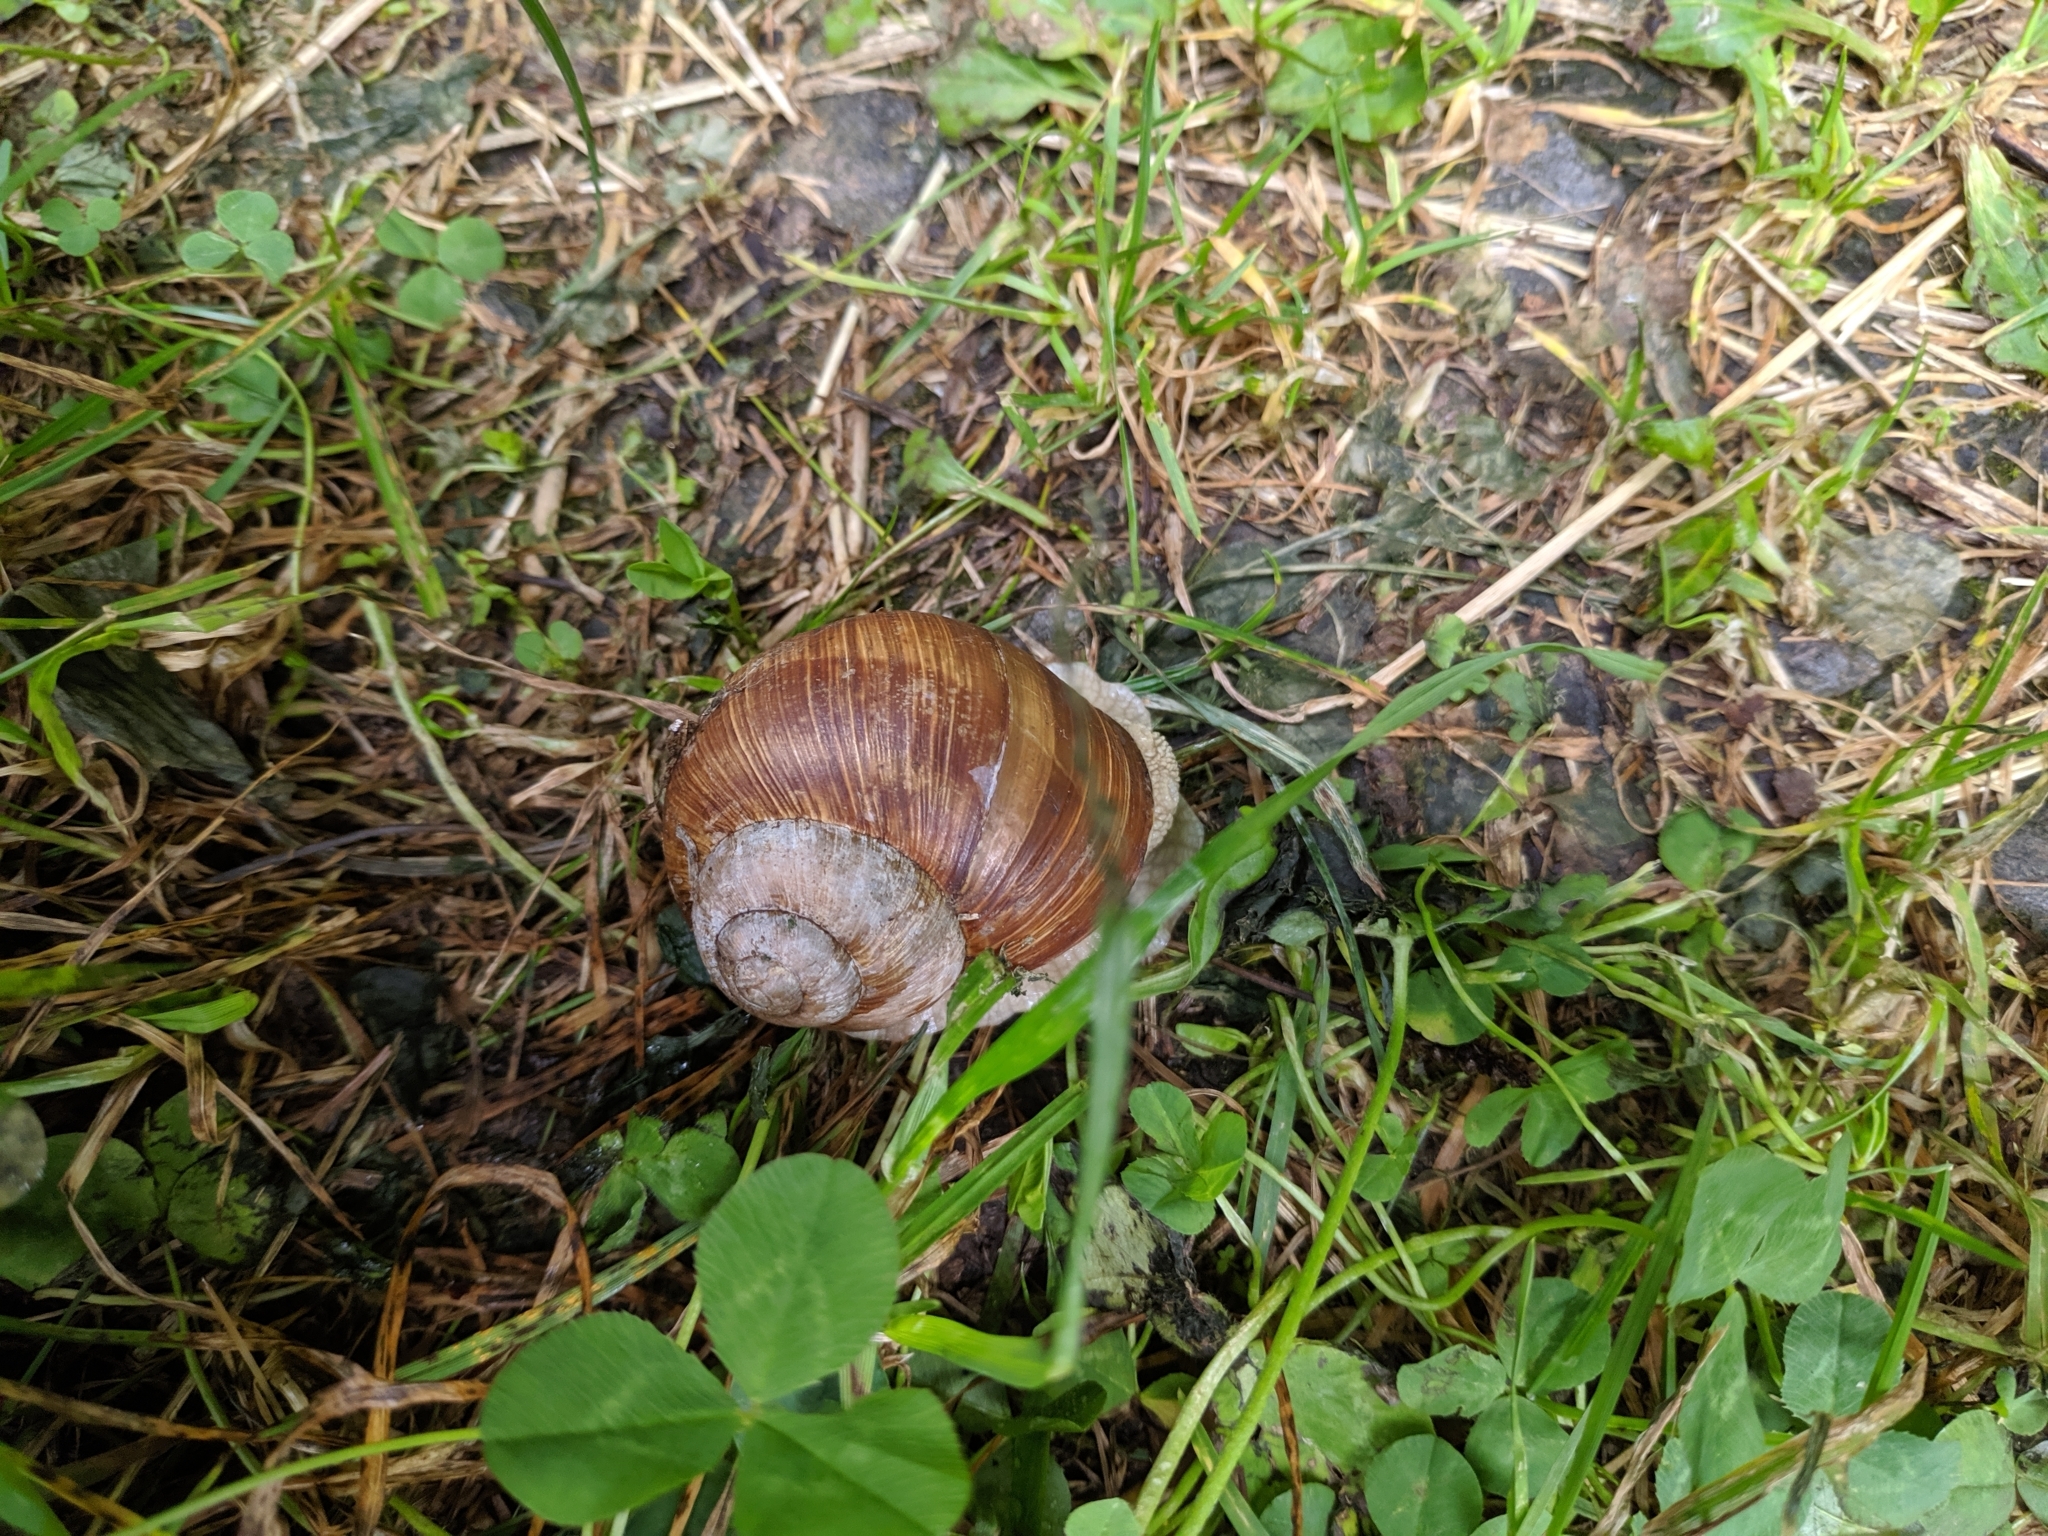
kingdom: Animalia
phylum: Mollusca
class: Gastropoda
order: Stylommatophora
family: Helicidae
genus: Helix
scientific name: Helix pomatia
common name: Roman snail
